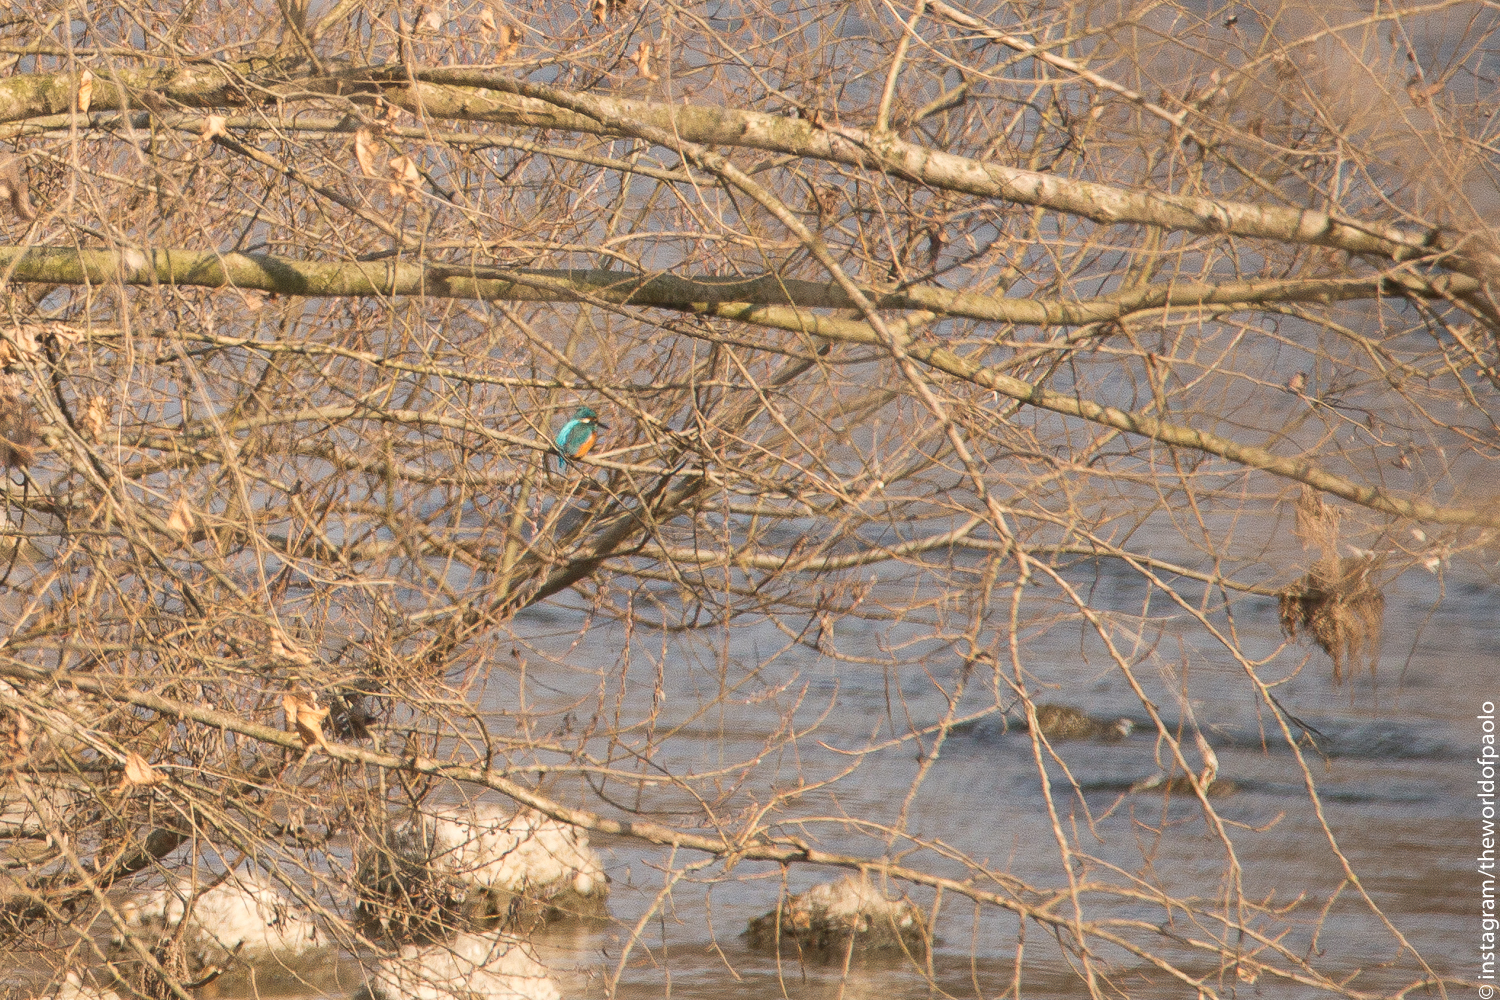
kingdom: Animalia
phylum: Chordata
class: Aves
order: Coraciiformes
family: Alcedinidae
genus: Alcedo
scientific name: Alcedo atthis
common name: Common kingfisher
